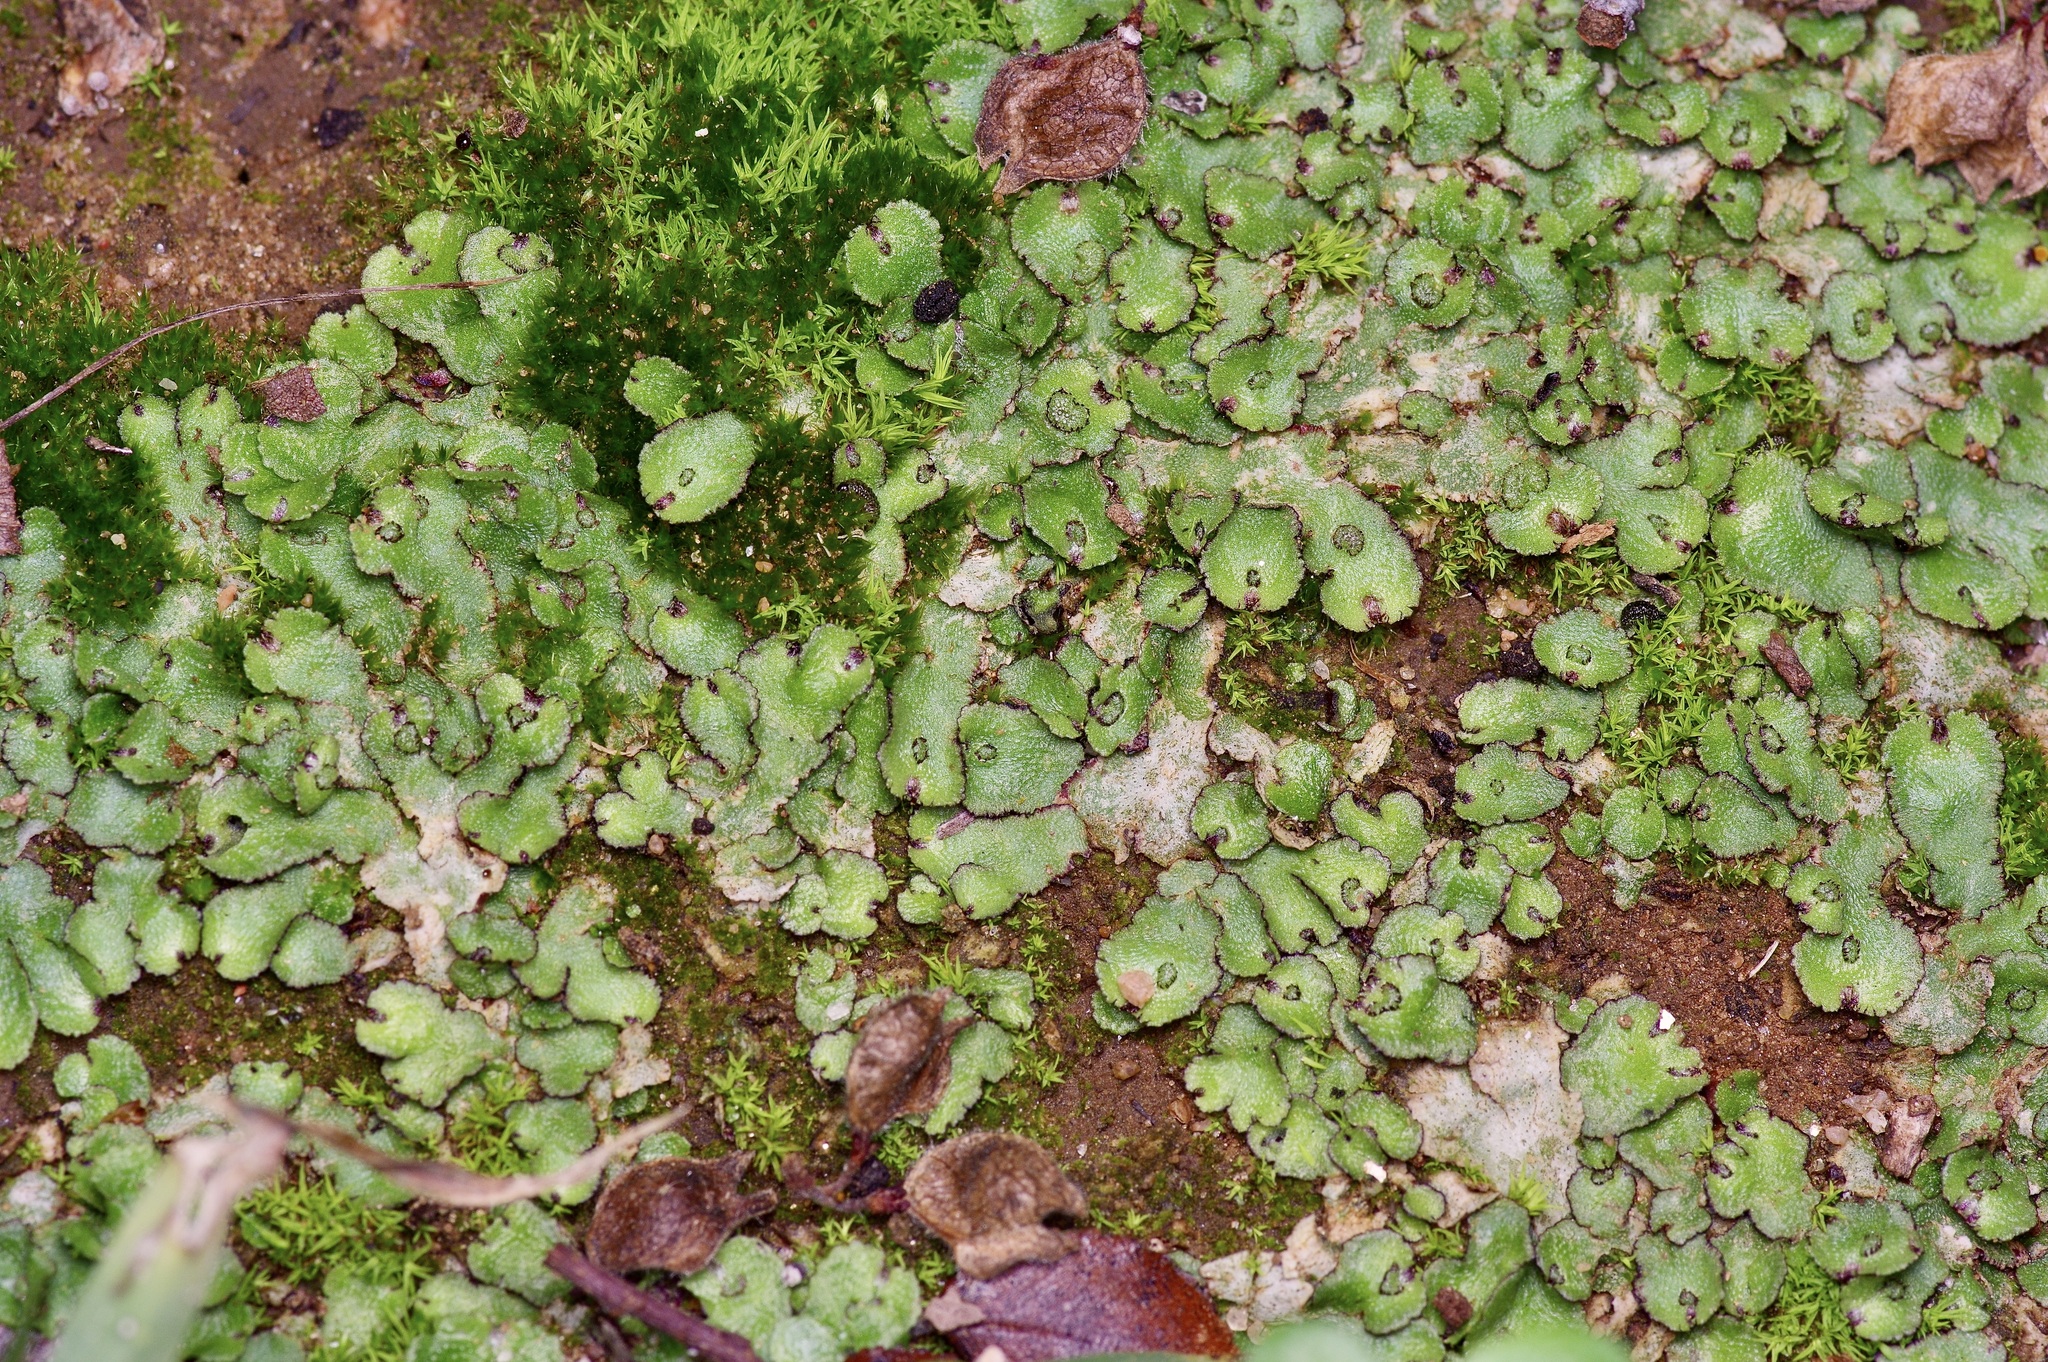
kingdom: Plantae
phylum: Marchantiophyta
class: Marchantiopsida
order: Marchantiales
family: Aytoniaceae
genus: Reboulia
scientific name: Reboulia hemisphaerica
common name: Purple-margined liverwort
